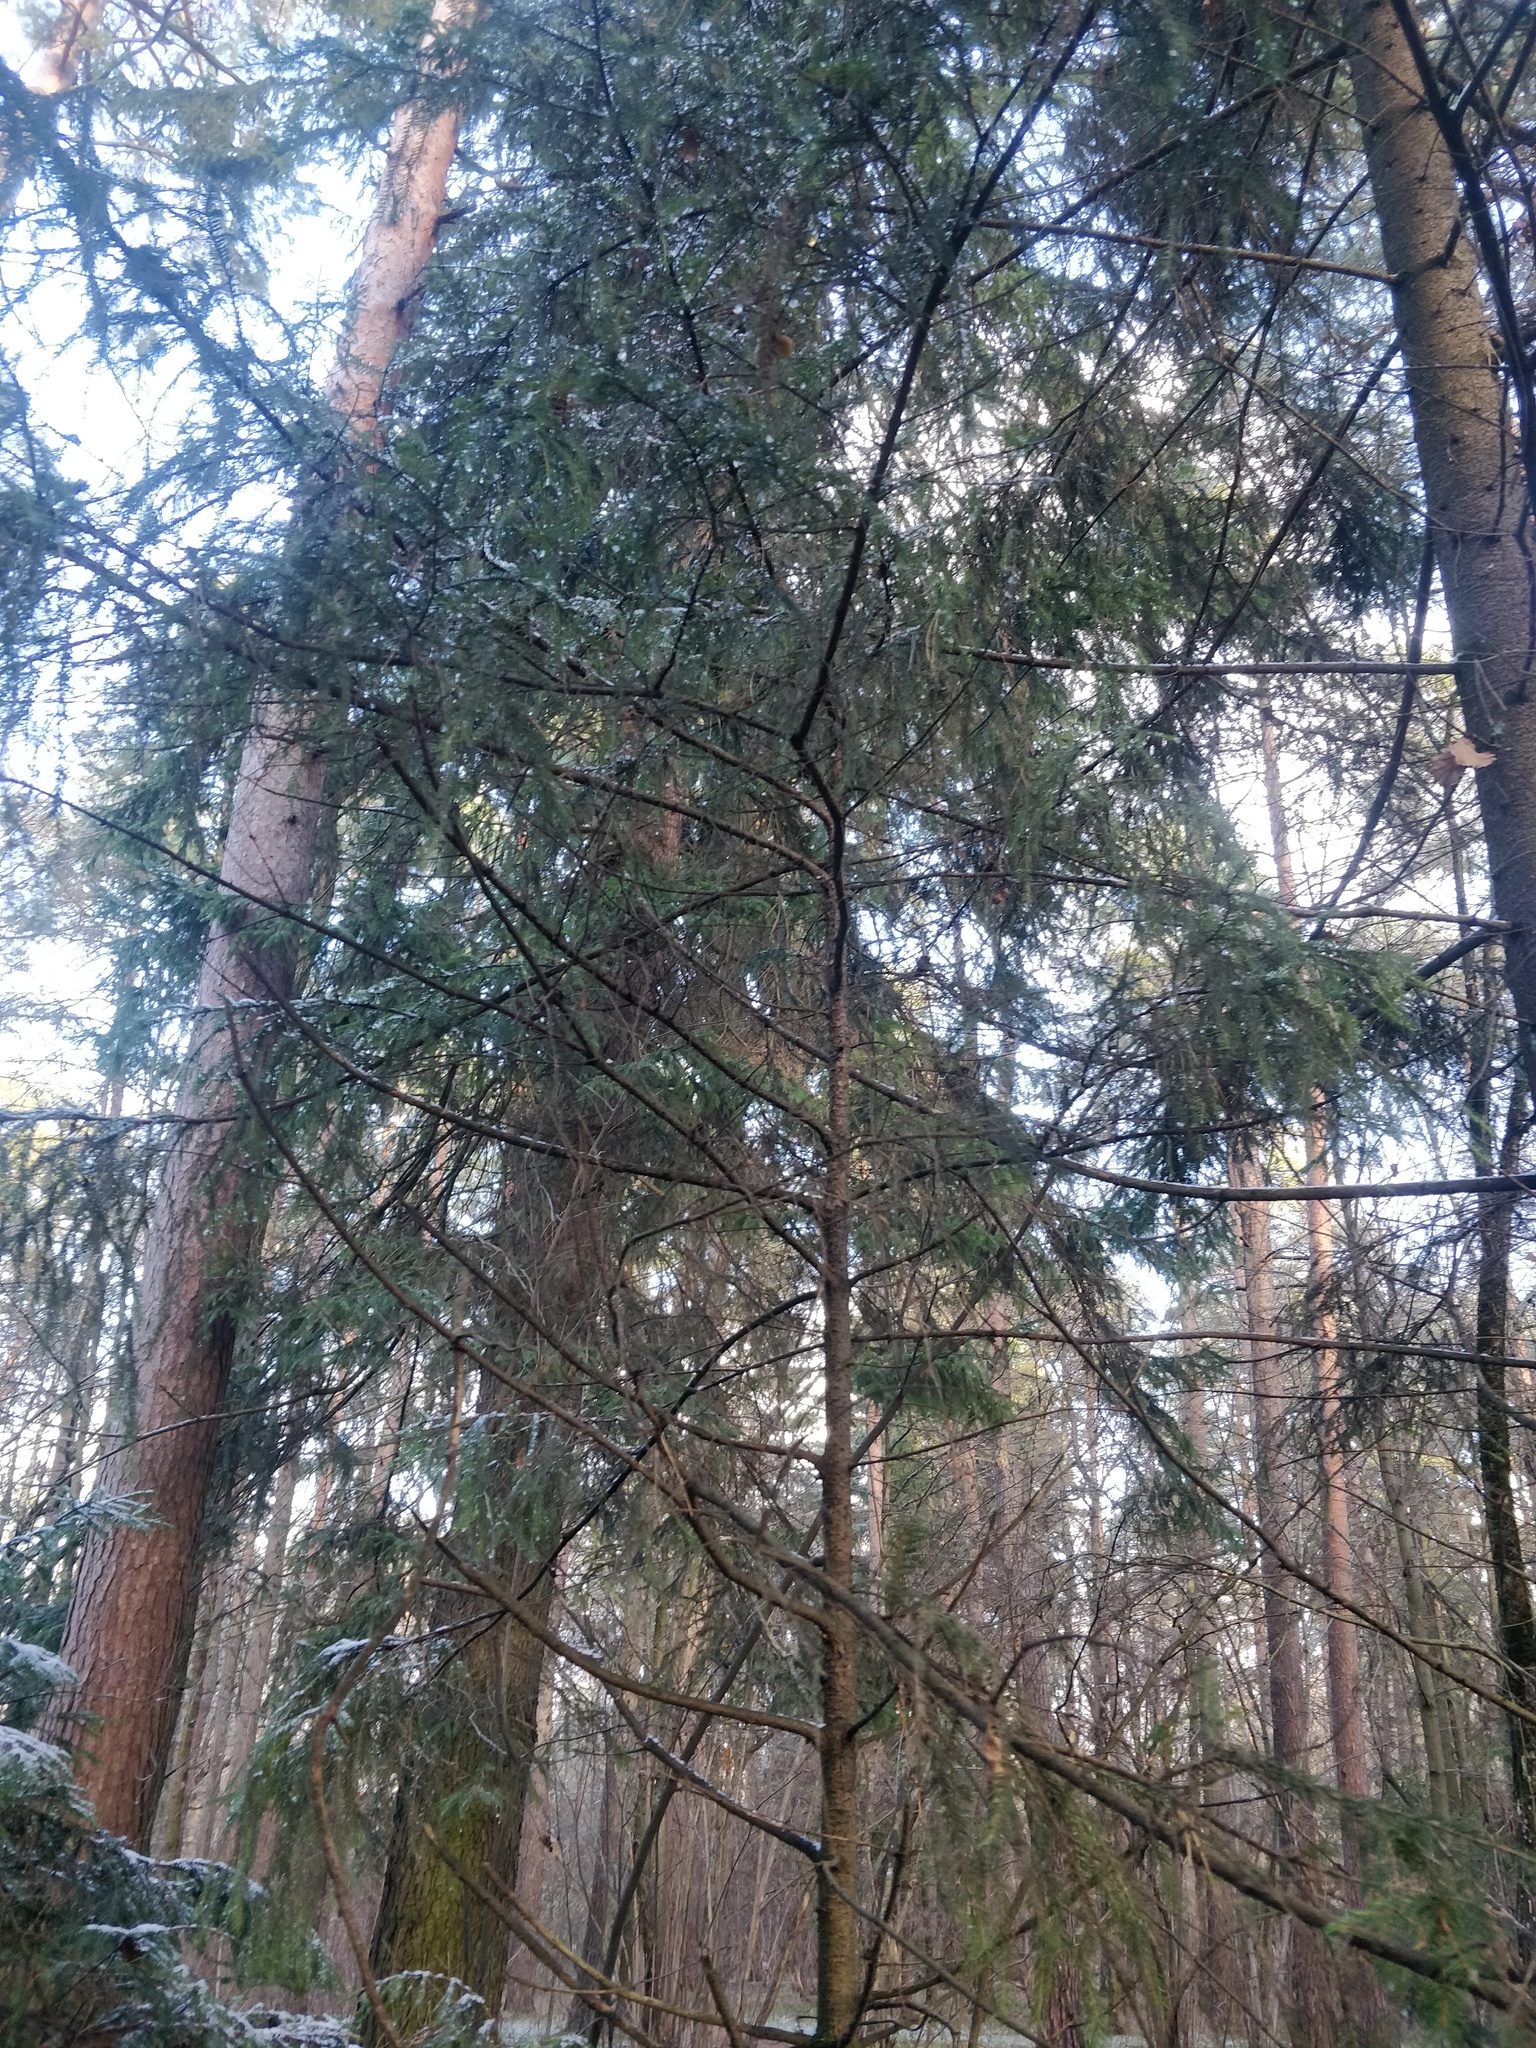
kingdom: Plantae
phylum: Tracheophyta
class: Pinopsida
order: Pinales
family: Pinaceae
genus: Picea
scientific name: Picea abies
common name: Norway spruce
